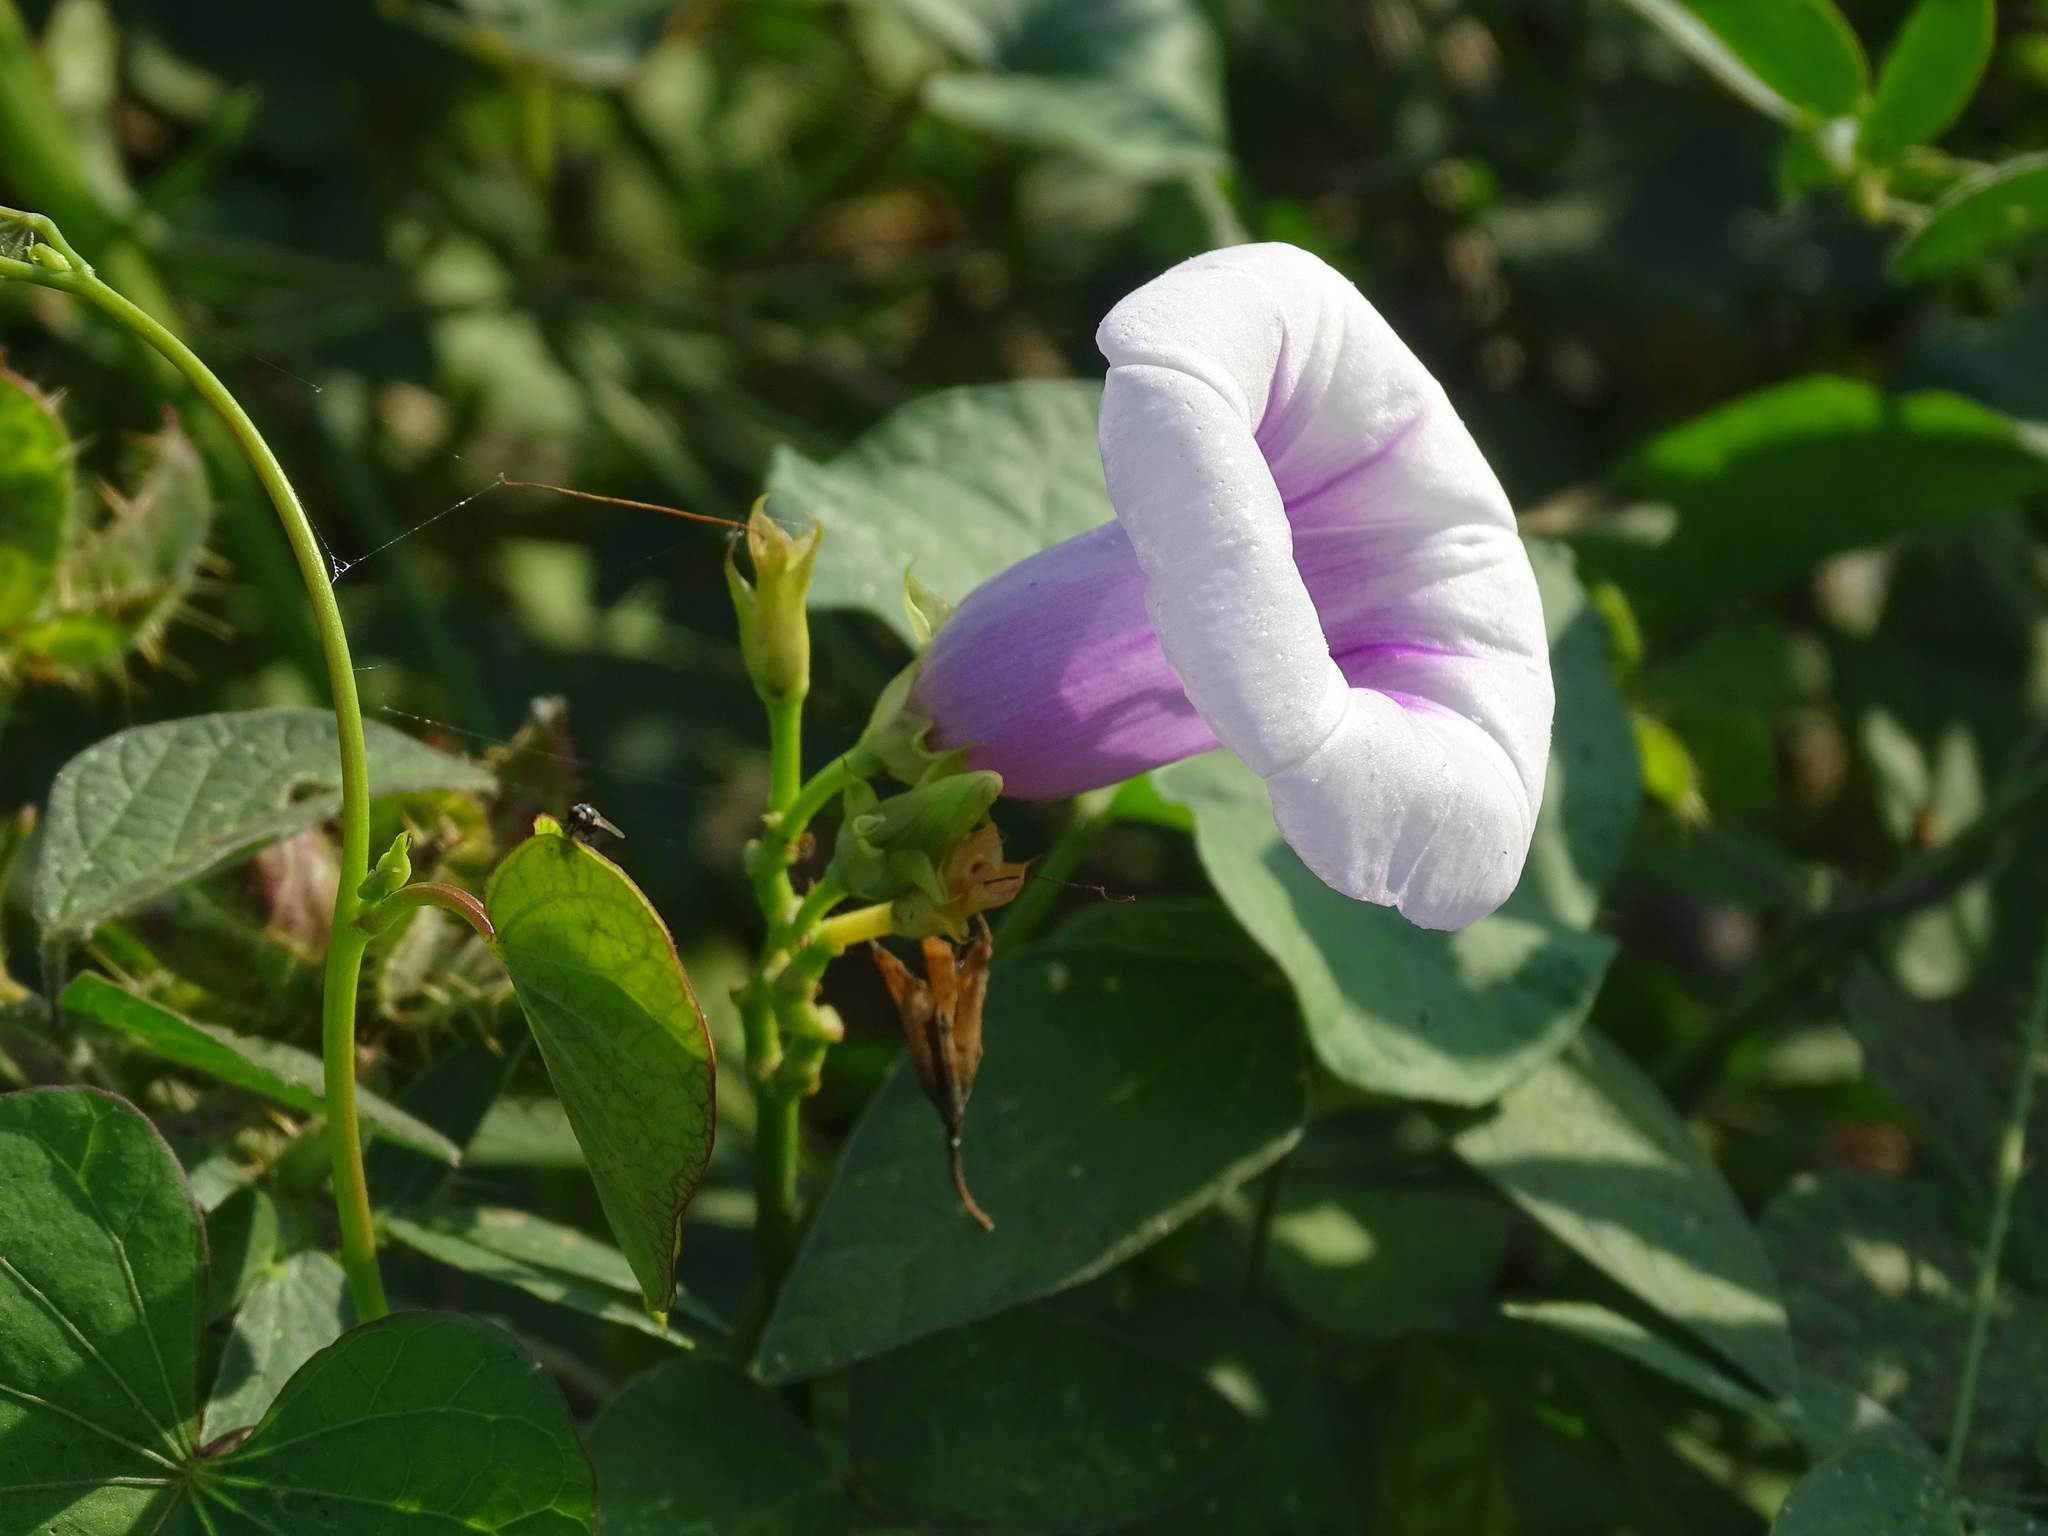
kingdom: Plantae
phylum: Tracheophyta
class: Magnoliopsida
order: Solanales
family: Convolvulaceae
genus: Ipomoea
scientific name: Ipomoea batatas
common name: Sweet-potato
